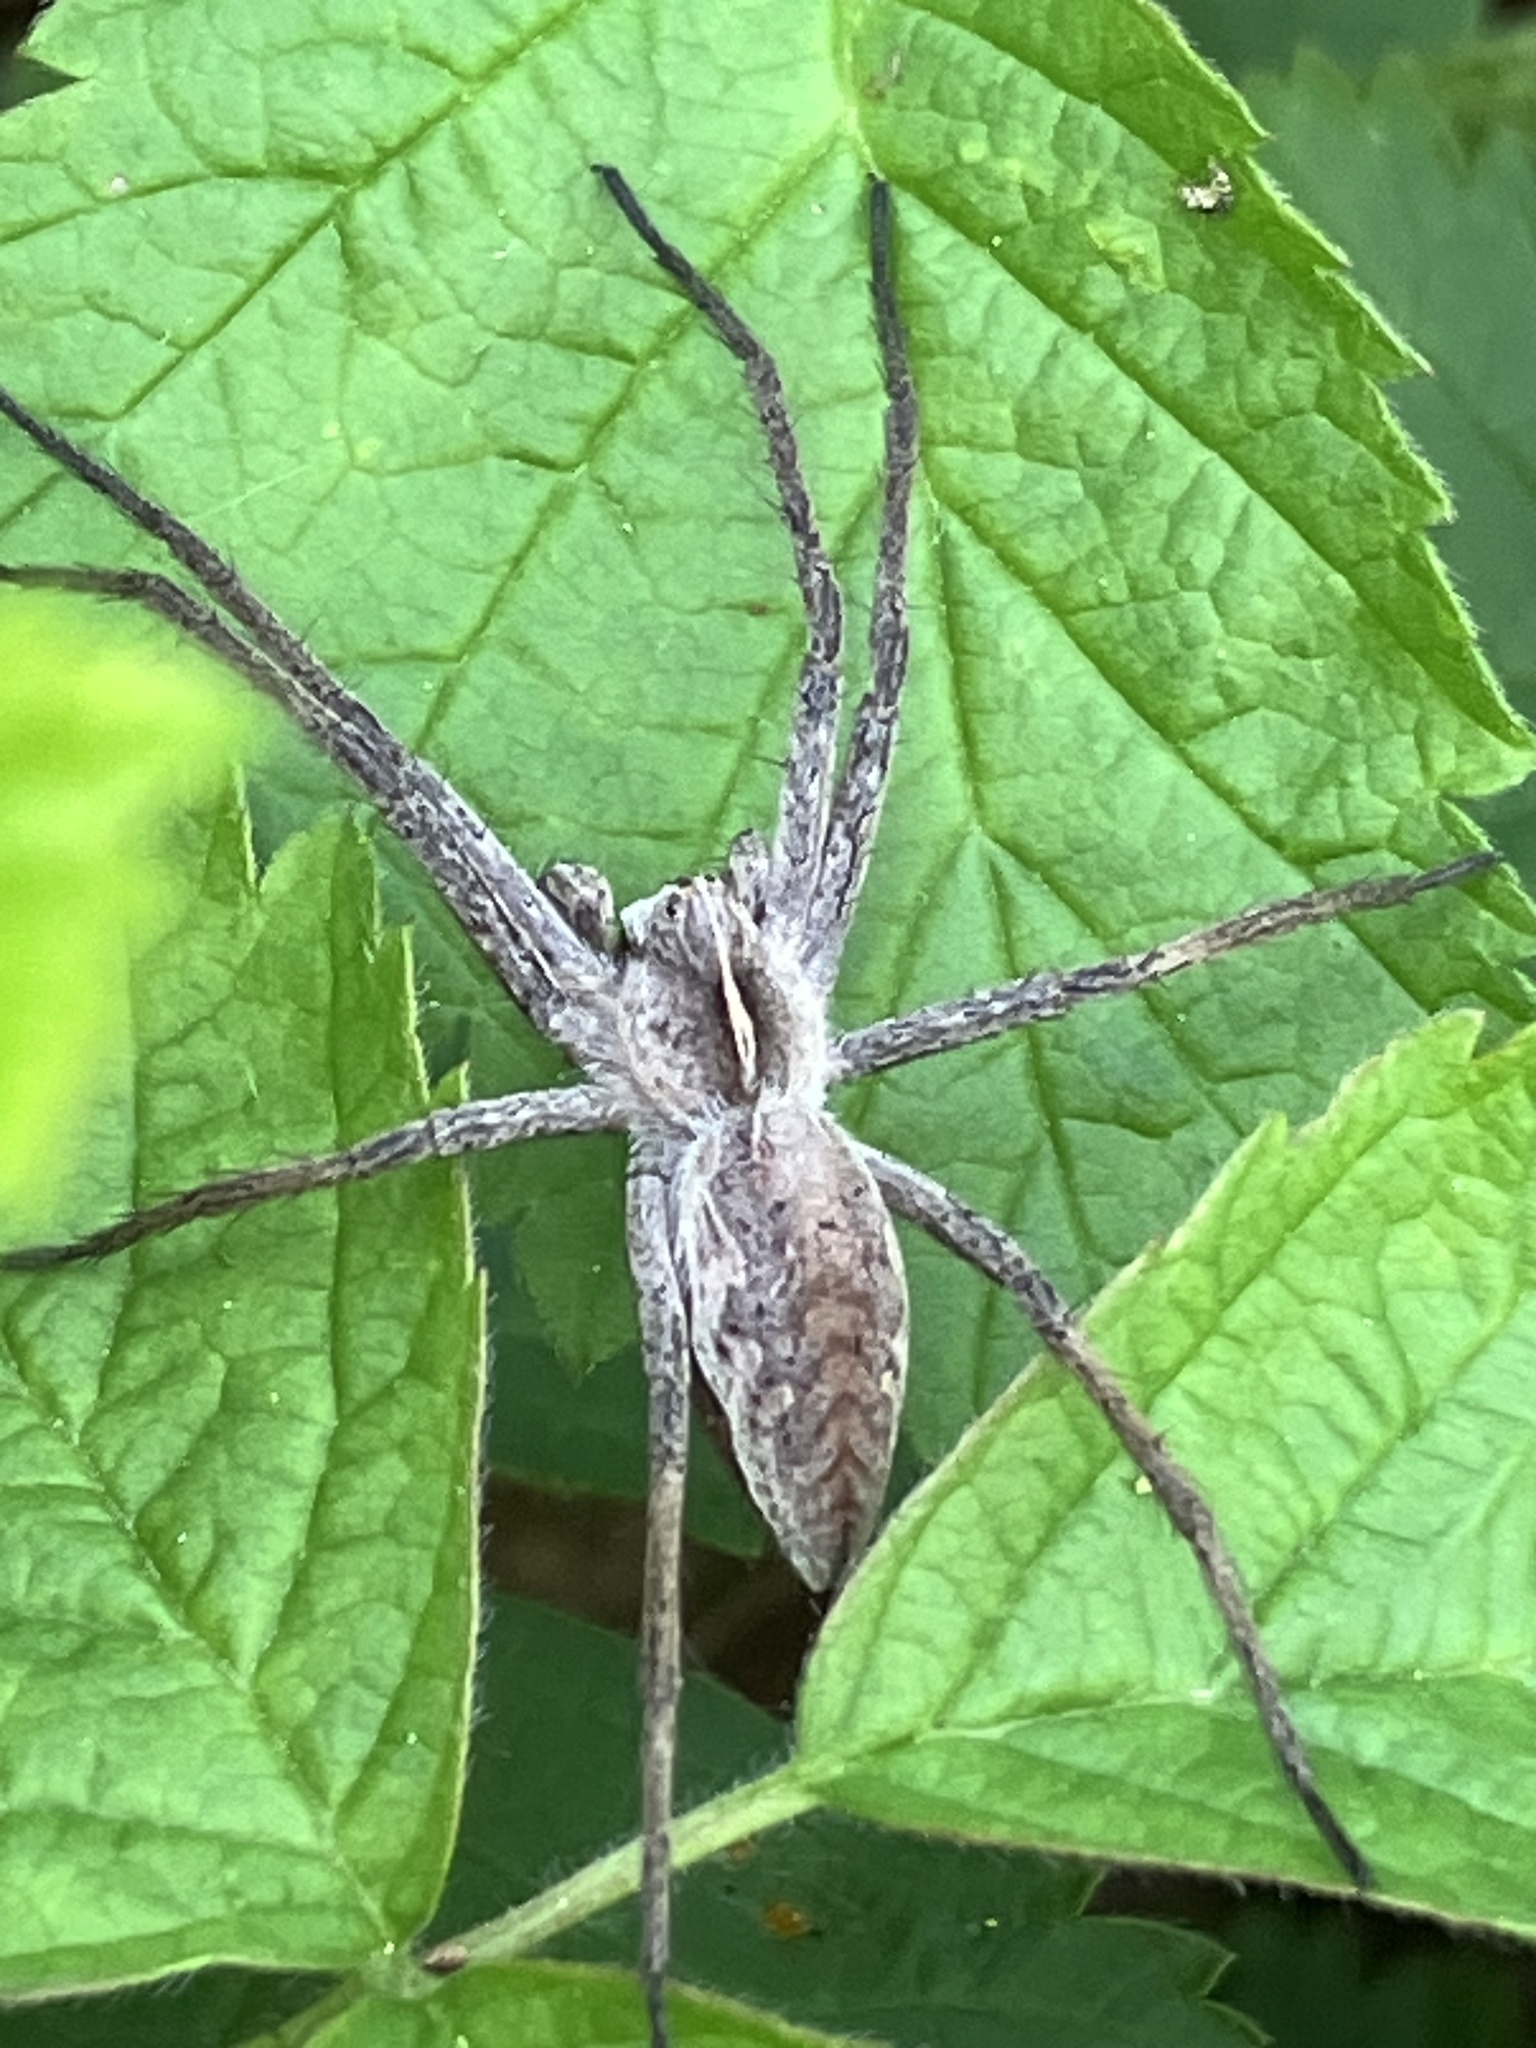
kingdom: Animalia
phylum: Arthropoda
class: Arachnida
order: Araneae
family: Pisauridae
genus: Pisaura
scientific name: Pisaura mirabilis
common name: Tent spider
